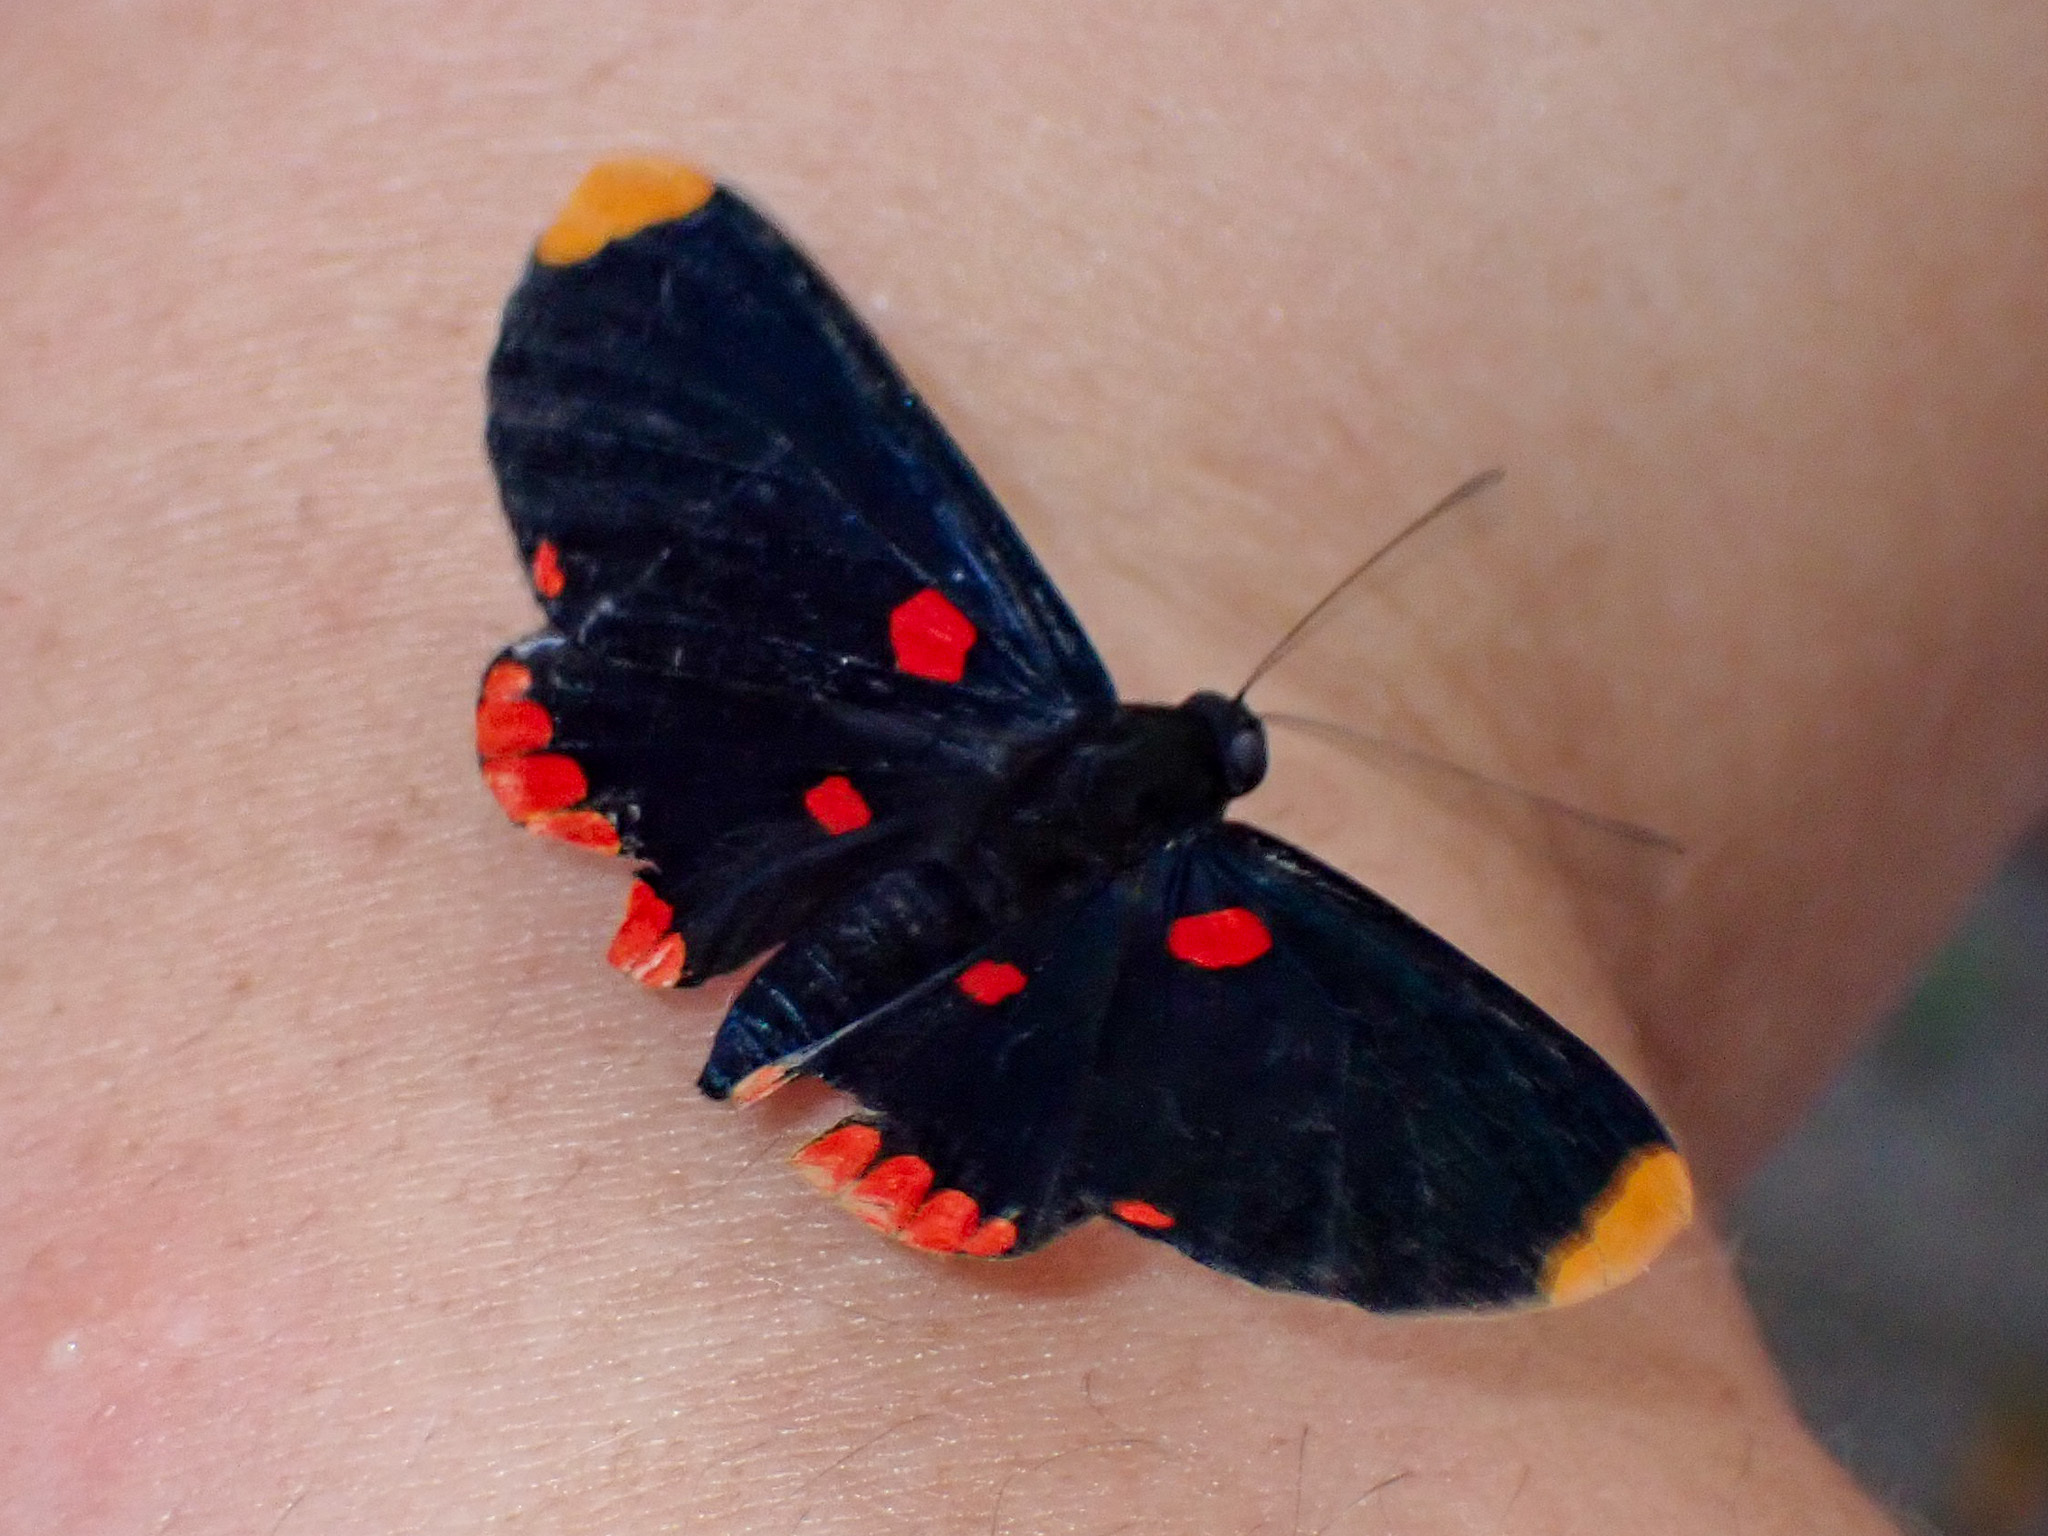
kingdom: Animalia
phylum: Arthropoda
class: Insecta
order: Lepidoptera
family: Lycaenidae
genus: Melanis
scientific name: Melanis pixe
